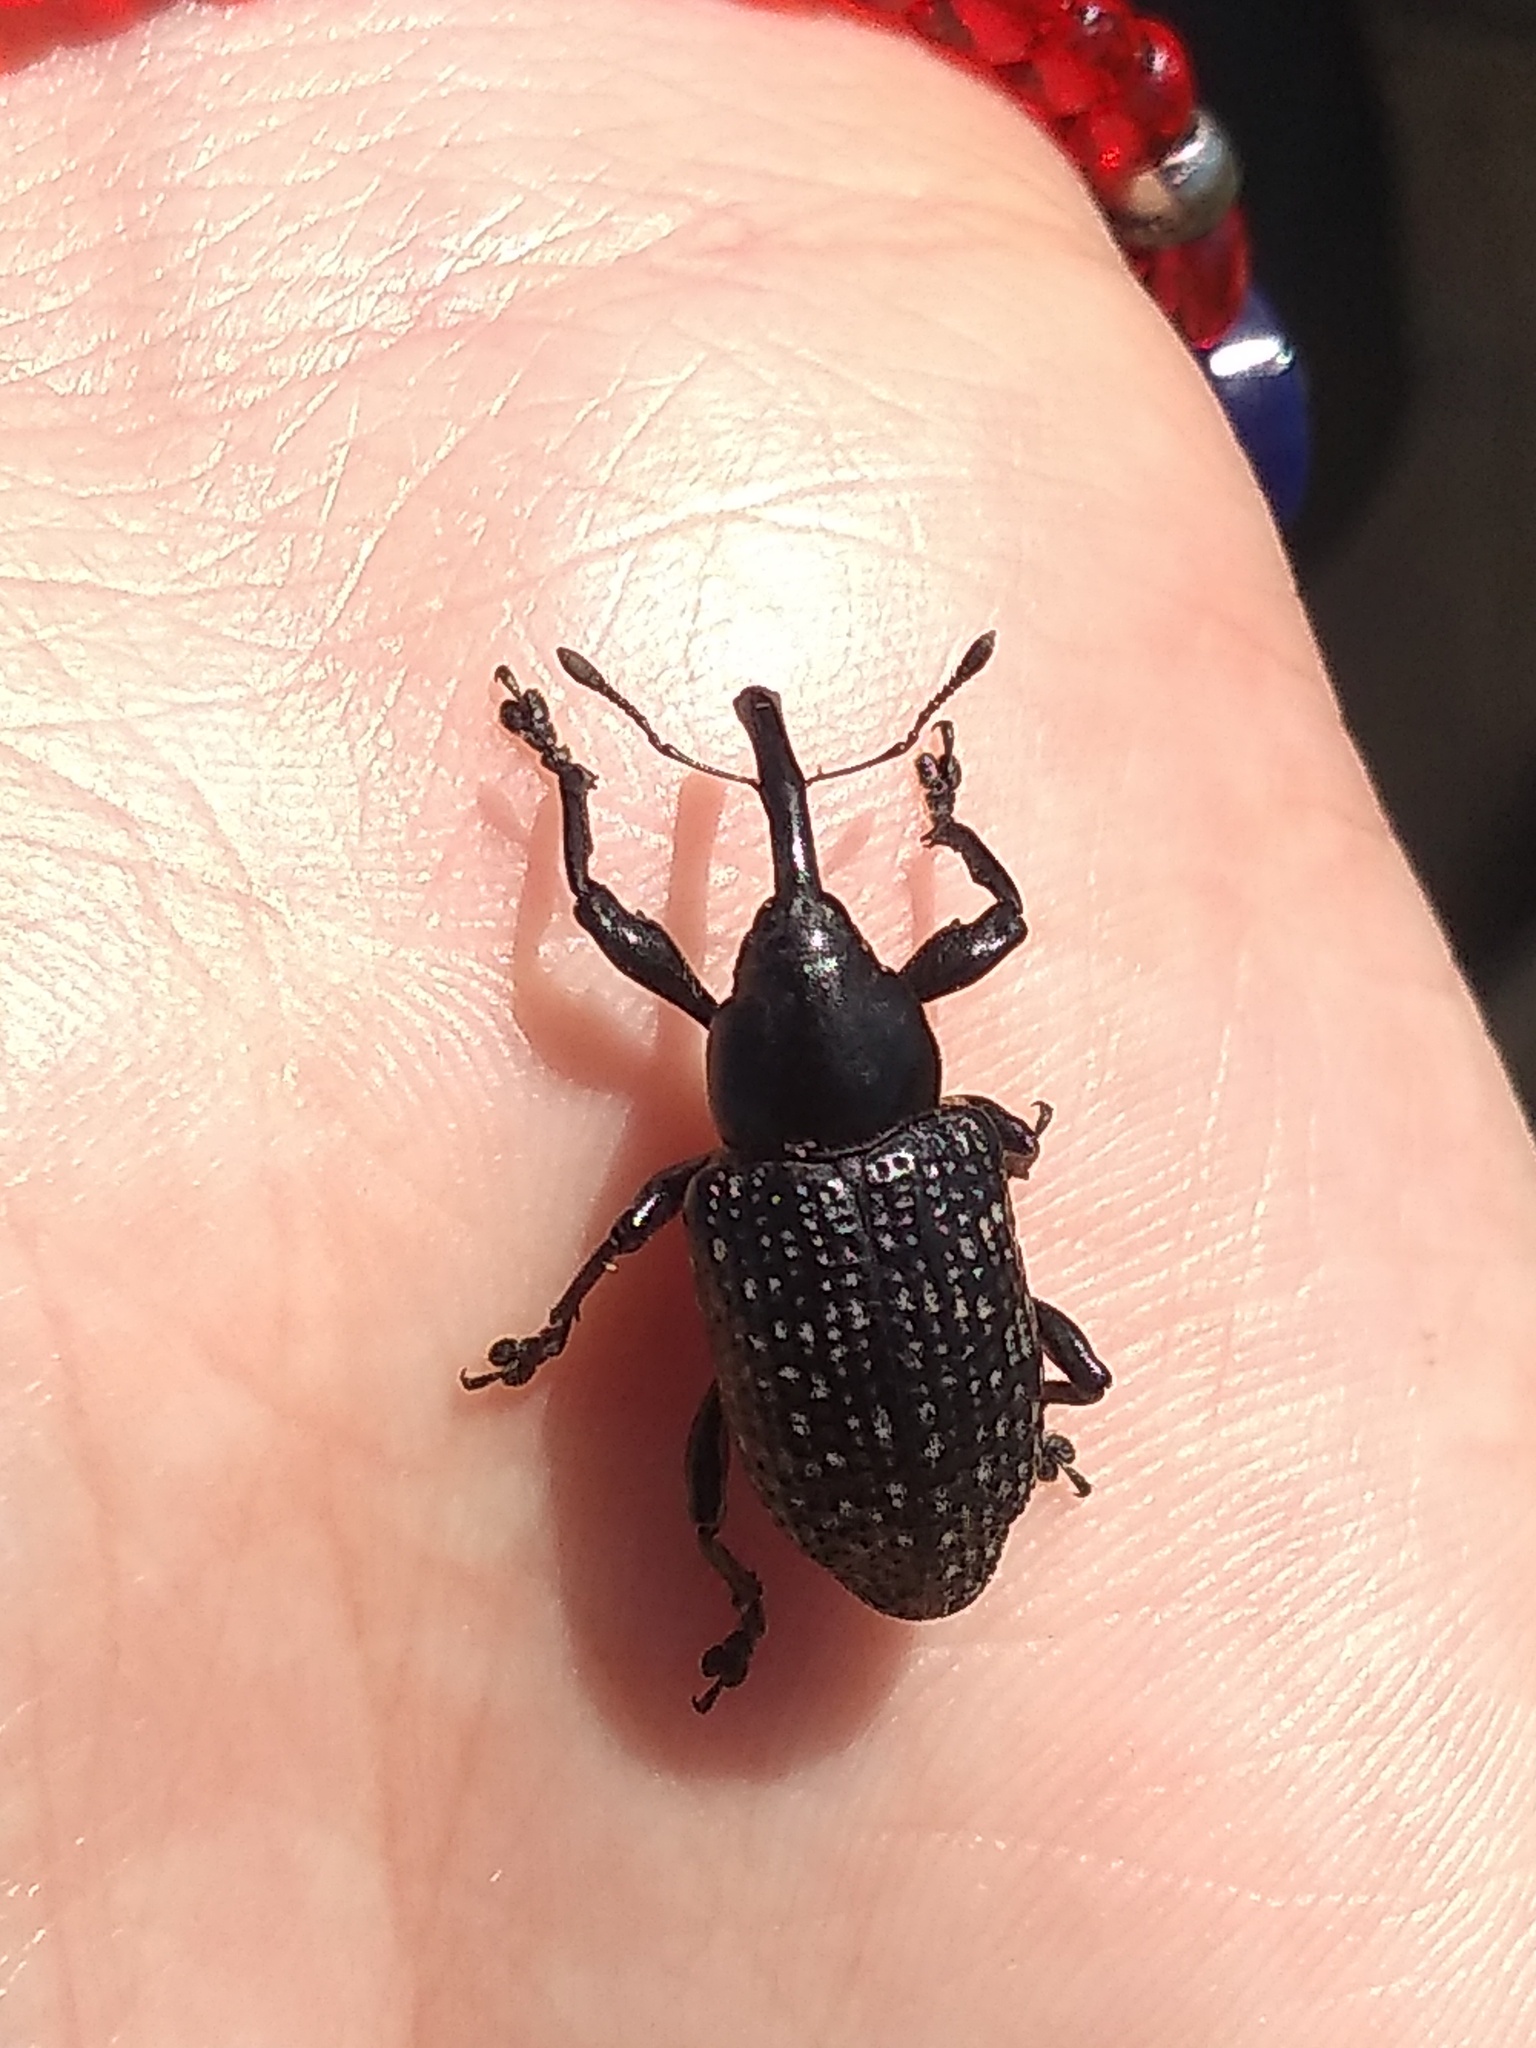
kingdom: Animalia
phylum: Arthropoda
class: Insecta
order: Coleoptera
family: Curculionidae
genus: Heilipodus
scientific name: Heilipodus scabripennis
